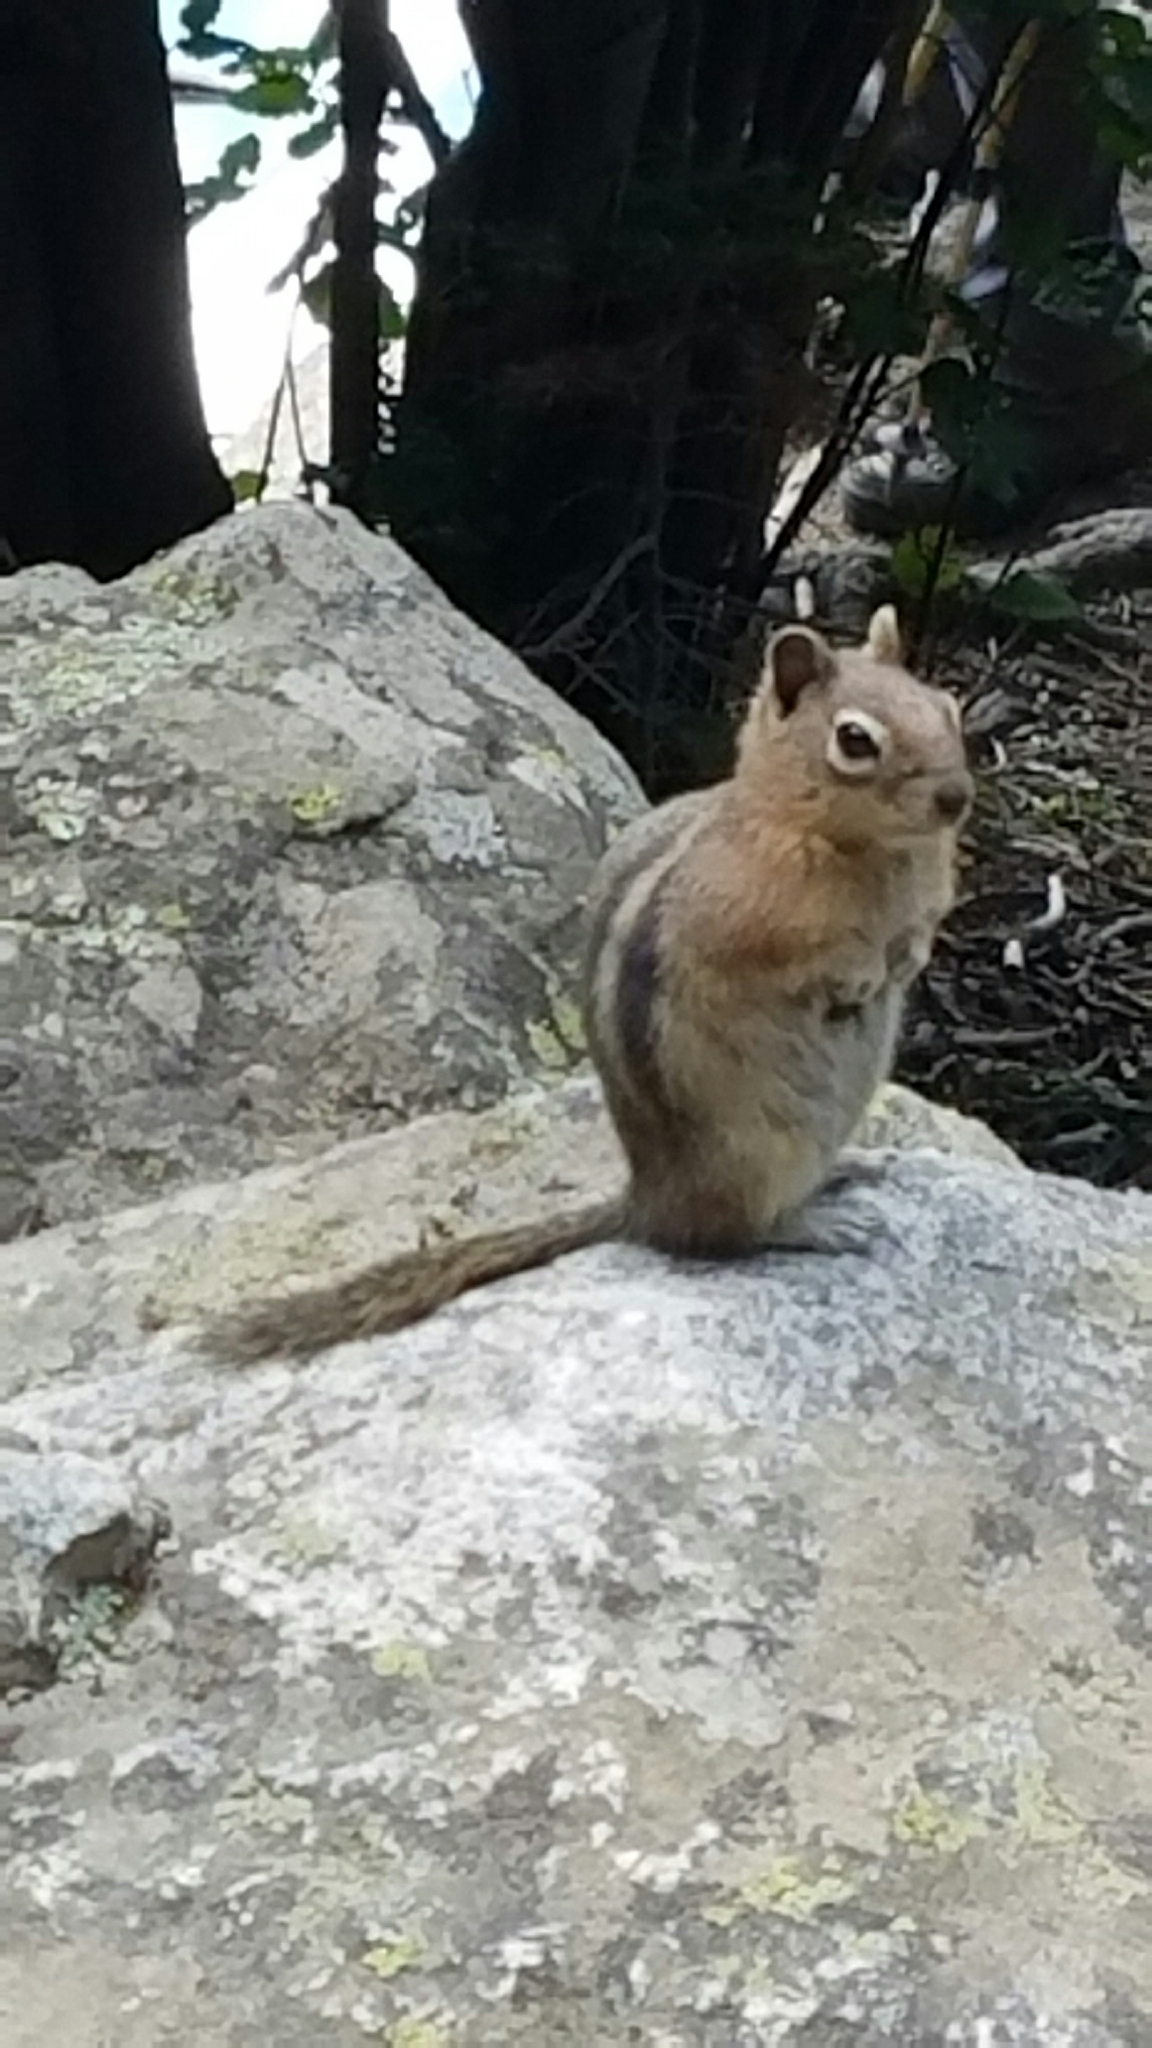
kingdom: Animalia
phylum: Chordata
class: Mammalia
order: Rodentia
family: Sciuridae
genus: Callospermophilus
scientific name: Callospermophilus lateralis
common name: Golden-mantled ground squirrel
